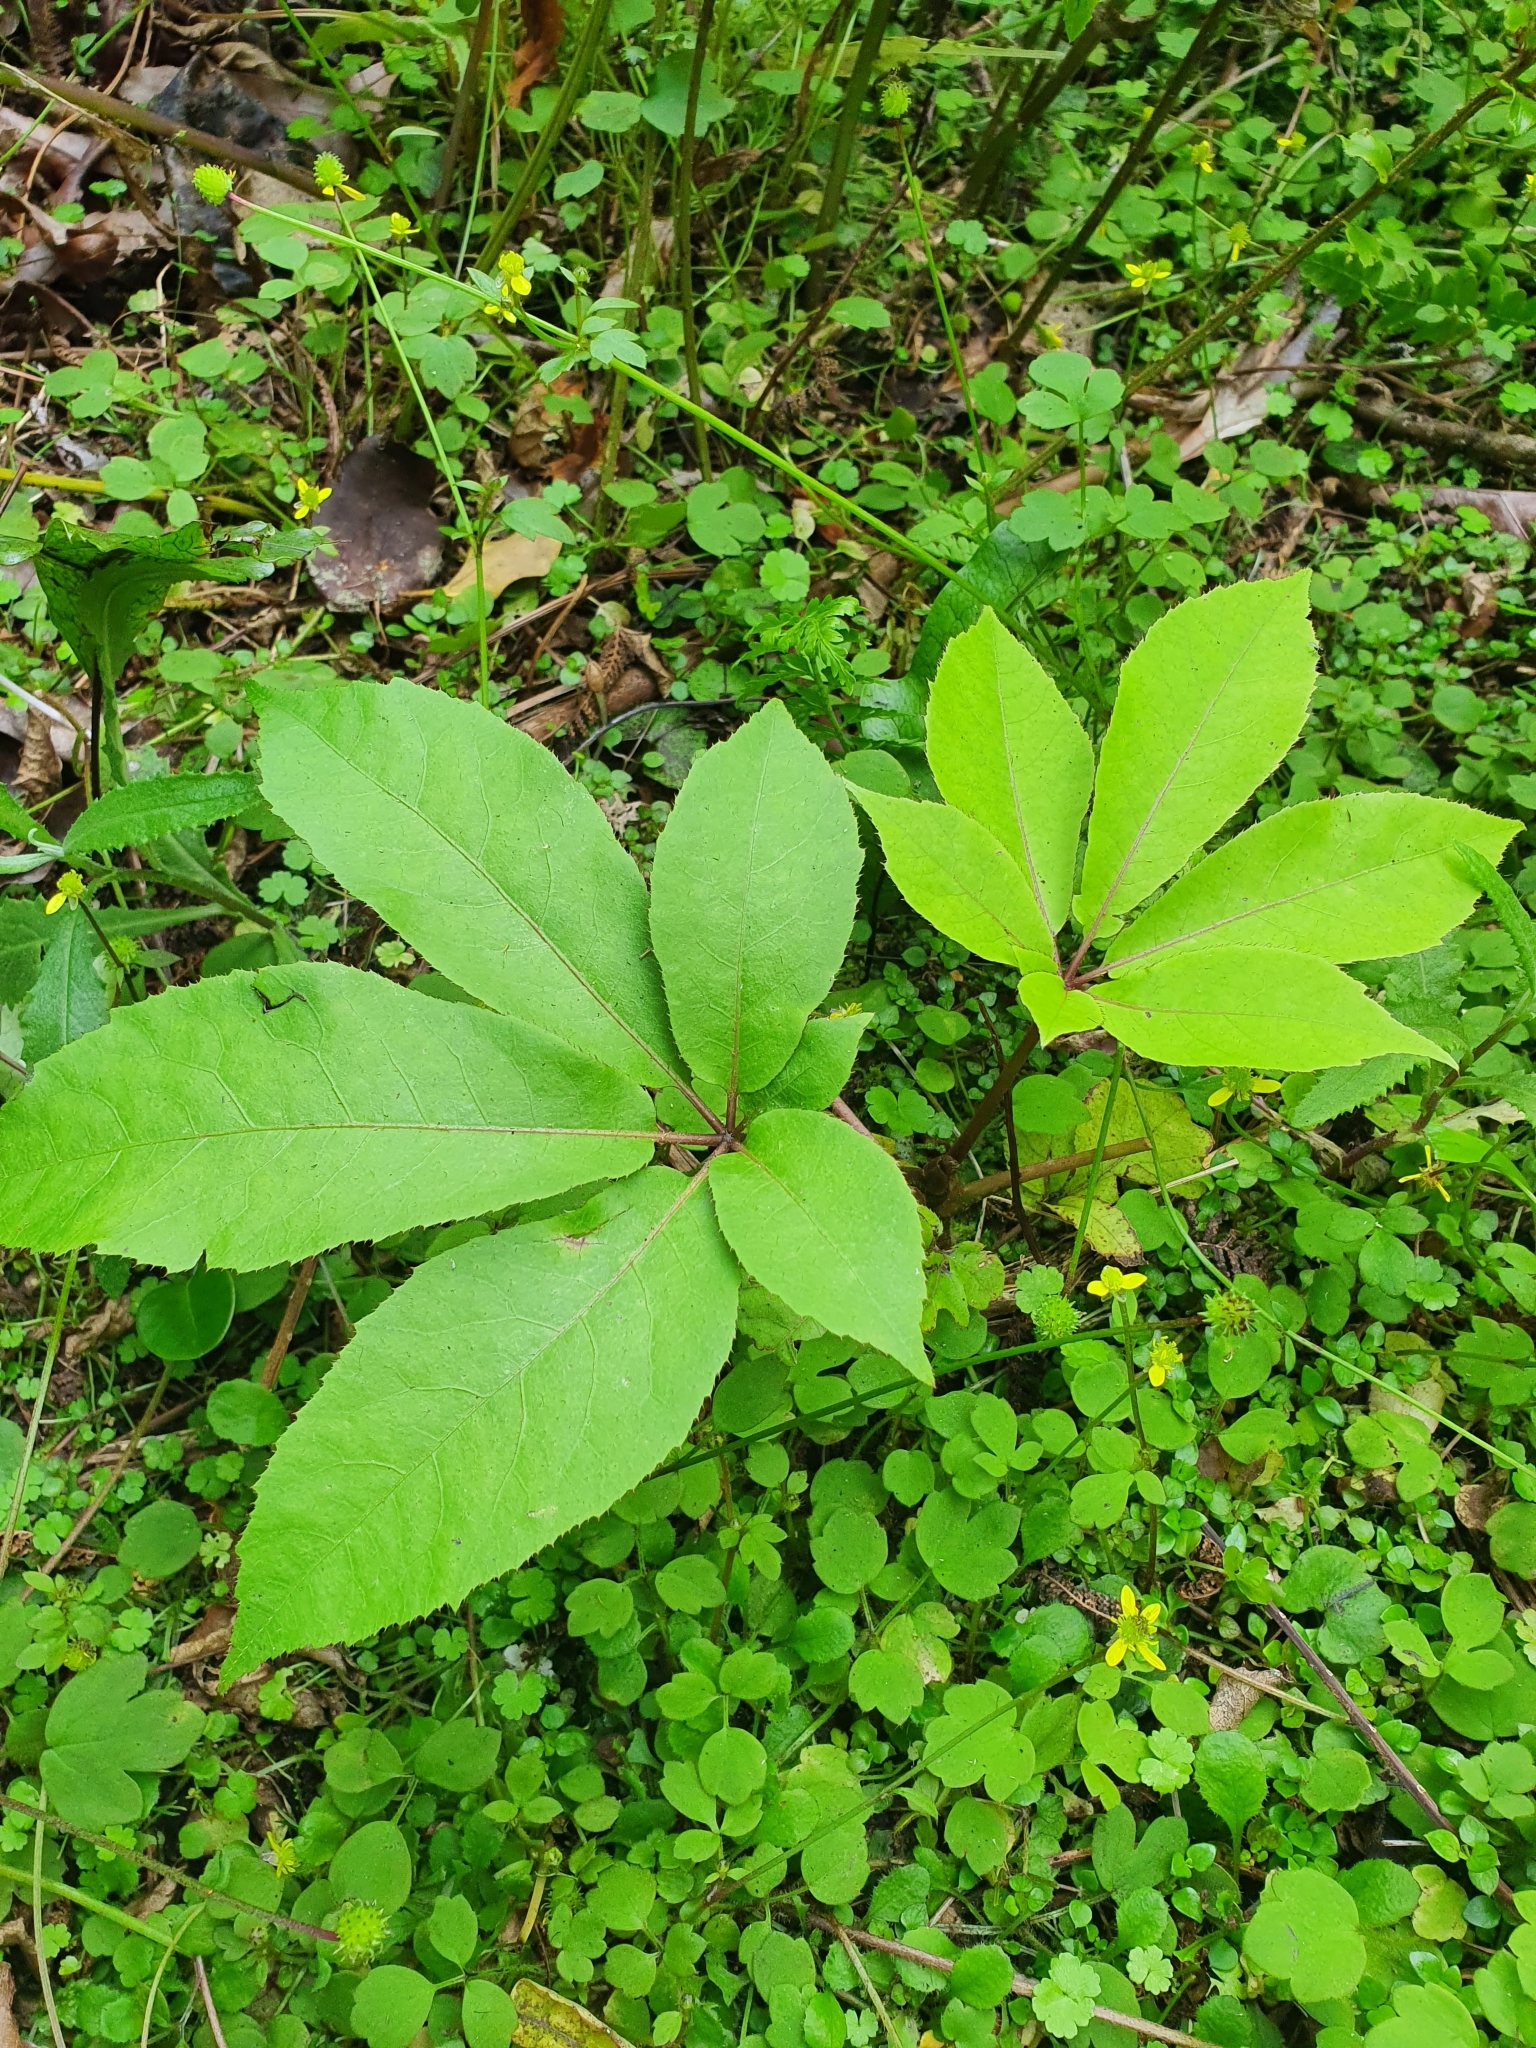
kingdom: Plantae
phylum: Tracheophyta
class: Magnoliopsida
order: Apiales
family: Araliaceae
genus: Schefflera
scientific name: Schefflera digitata
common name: Pate
